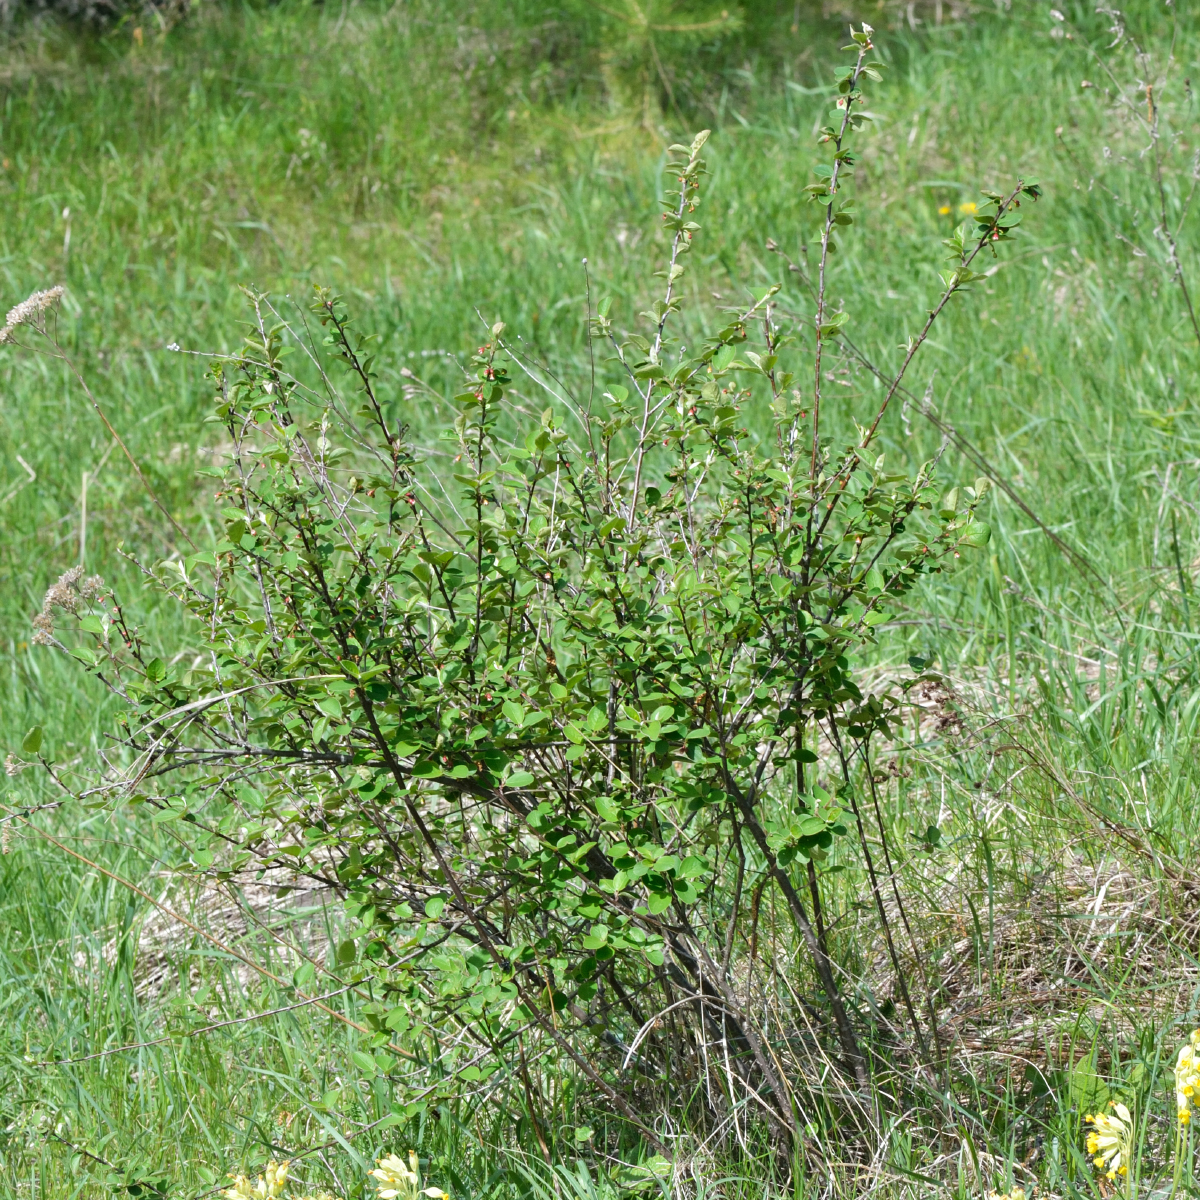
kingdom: Plantae
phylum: Tracheophyta
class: Magnoliopsida
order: Rosales
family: Rosaceae
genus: Cotoneaster
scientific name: Cotoneaster alaunicus
